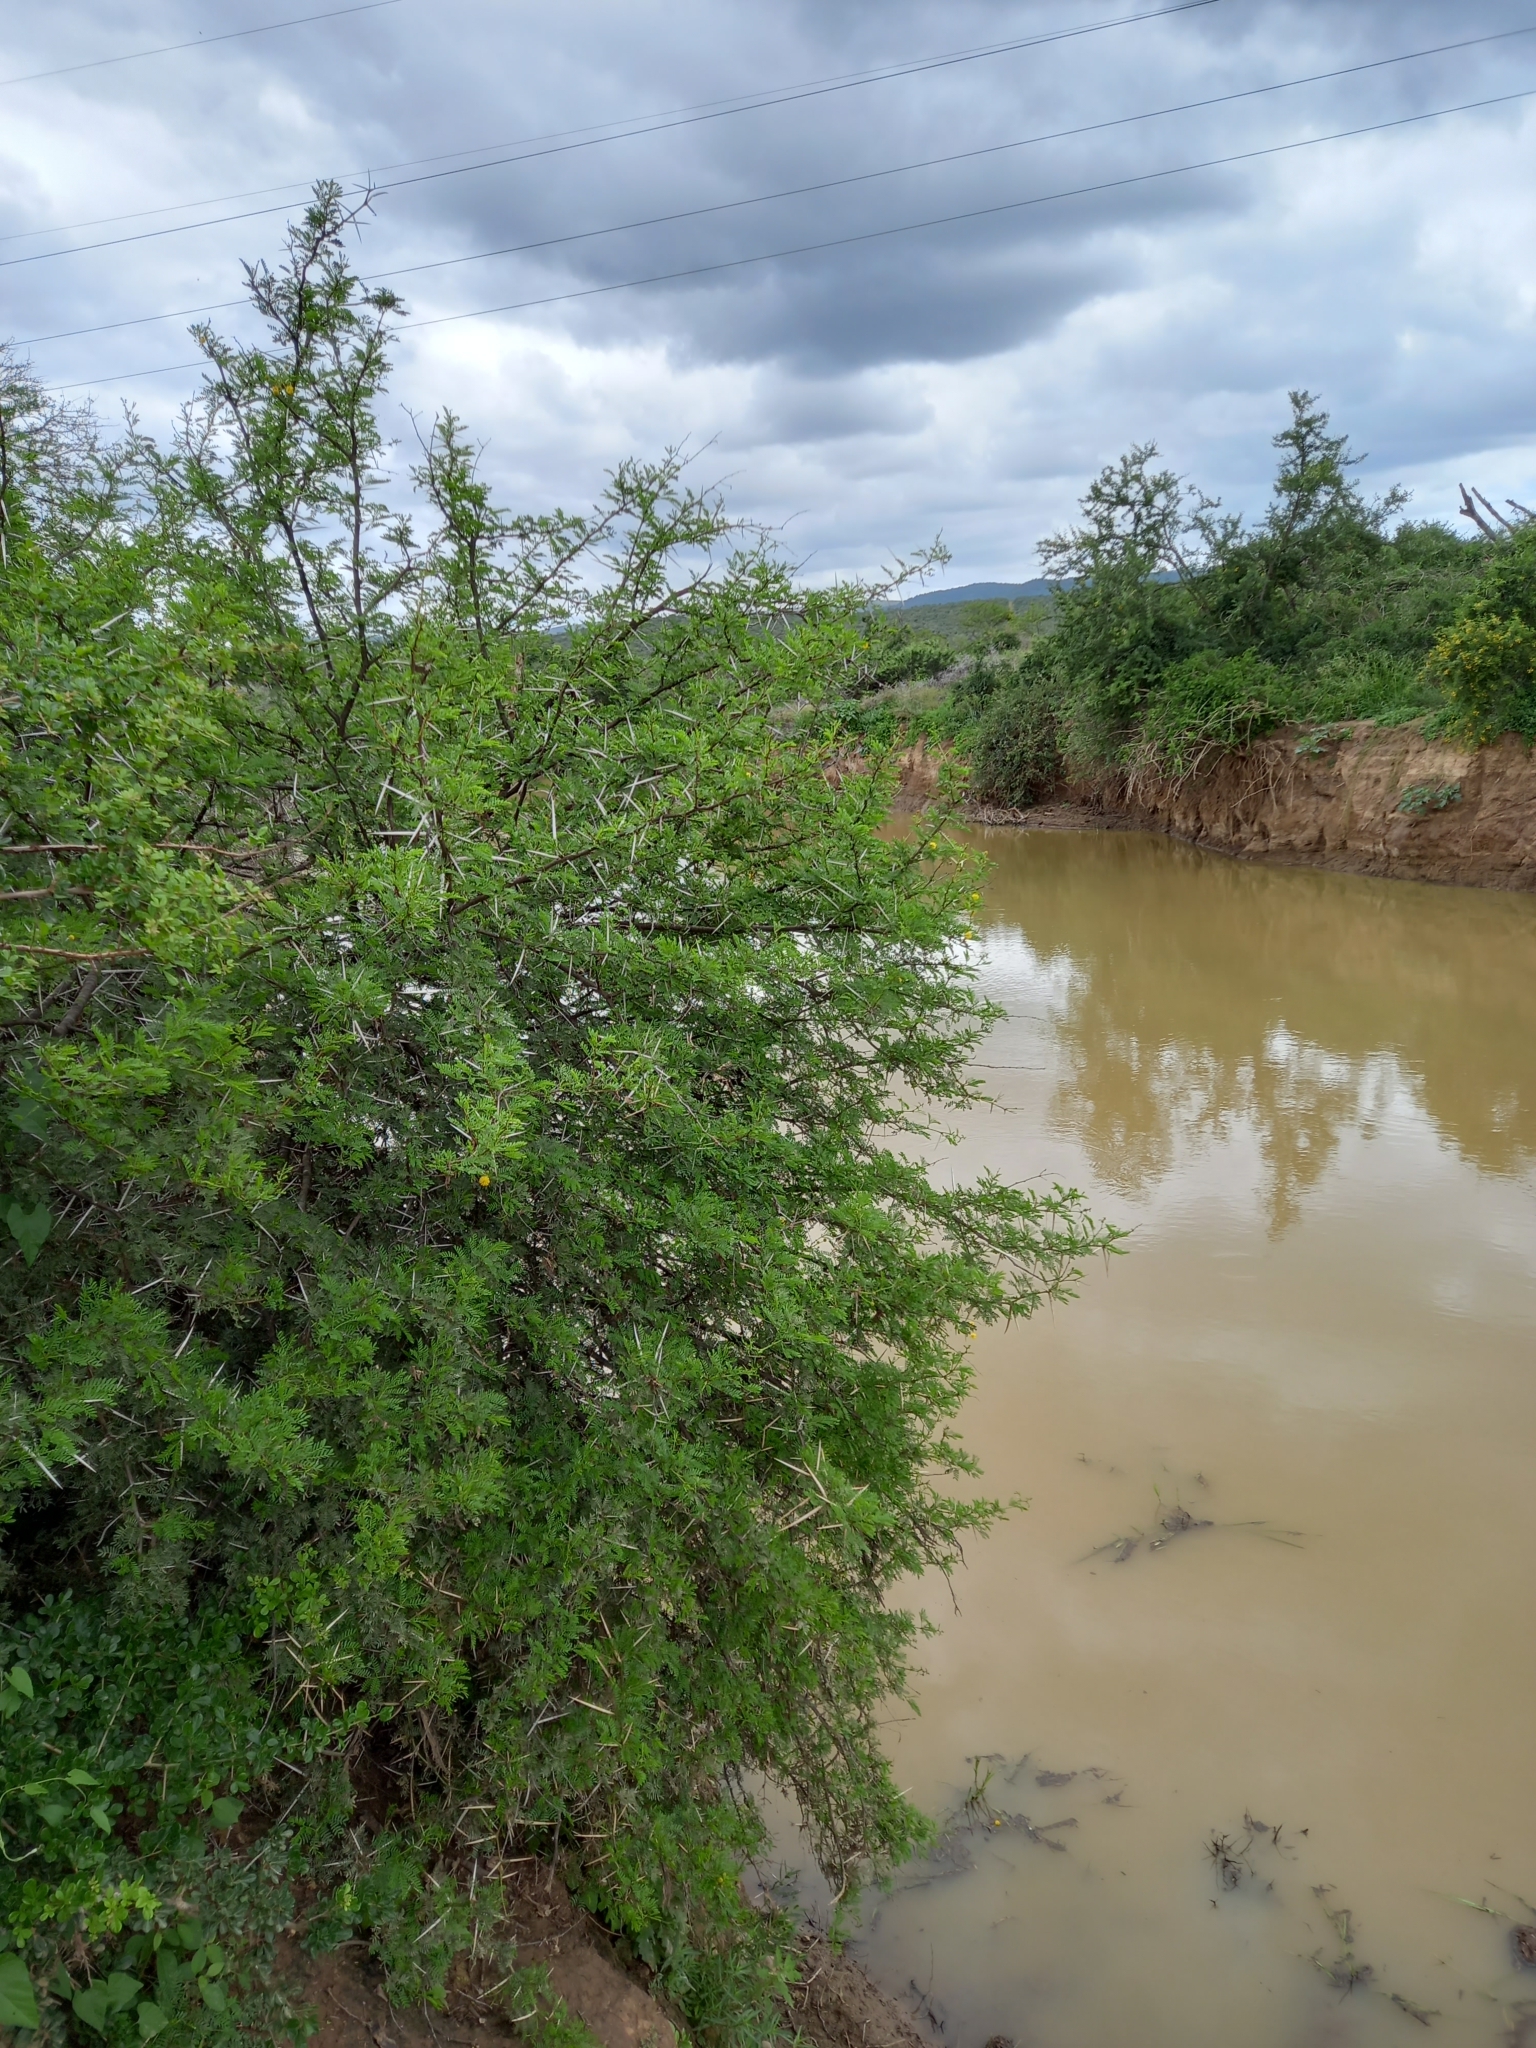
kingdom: Plantae
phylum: Tracheophyta
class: Magnoliopsida
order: Fabales
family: Fabaceae
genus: Vachellia
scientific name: Vachellia karroo
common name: Sweet thorn
